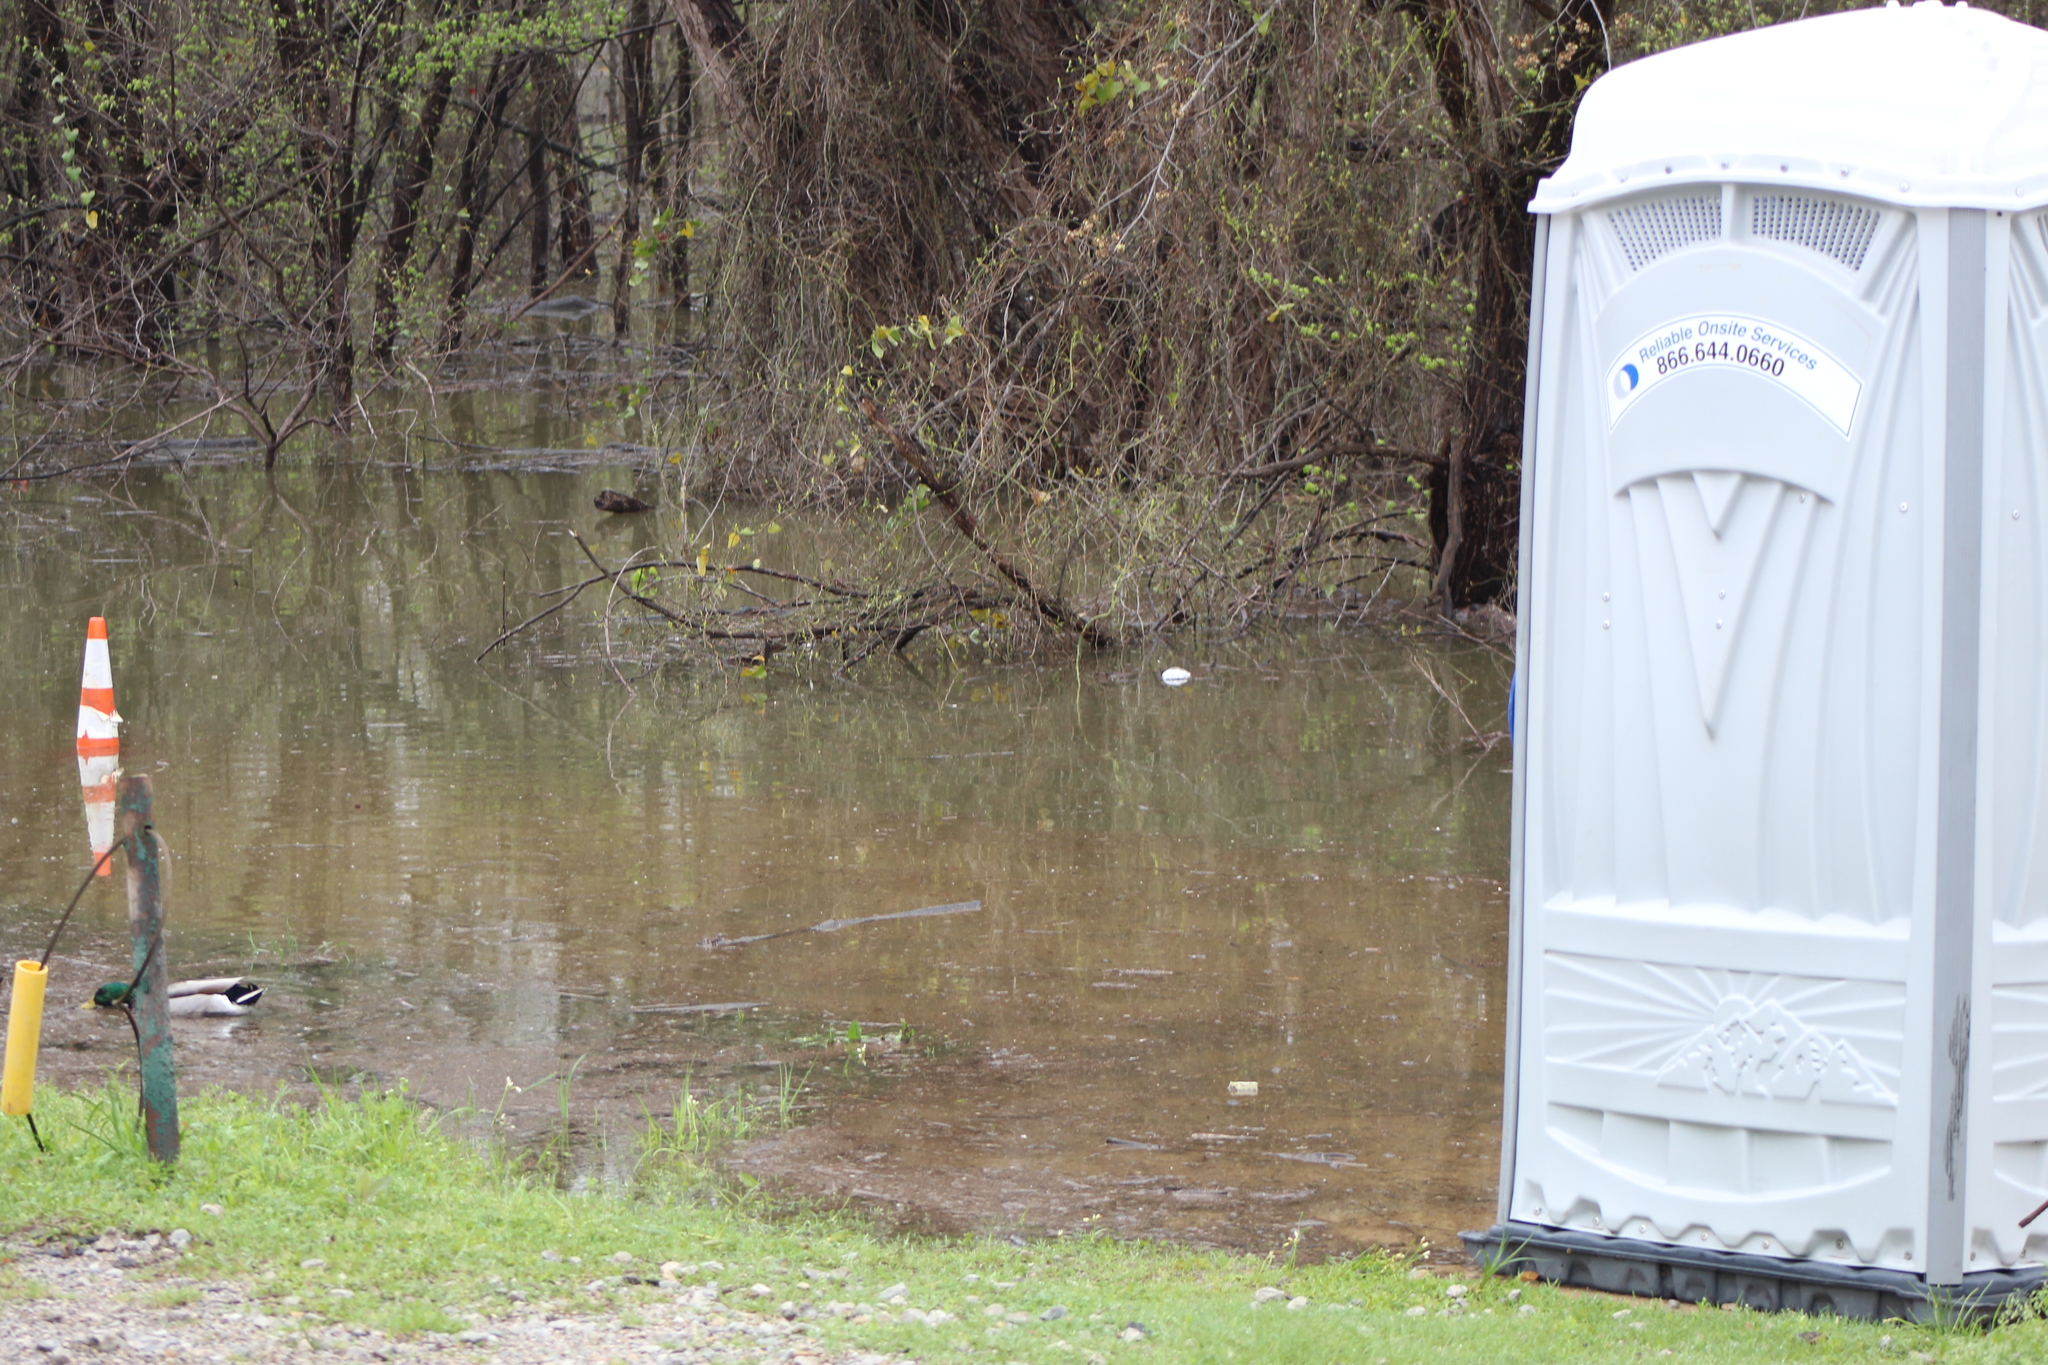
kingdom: Animalia
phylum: Chordata
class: Aves
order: Anseriformes
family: Anatidae
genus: Anas
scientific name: Anas platyrhynchos
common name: Mallard
